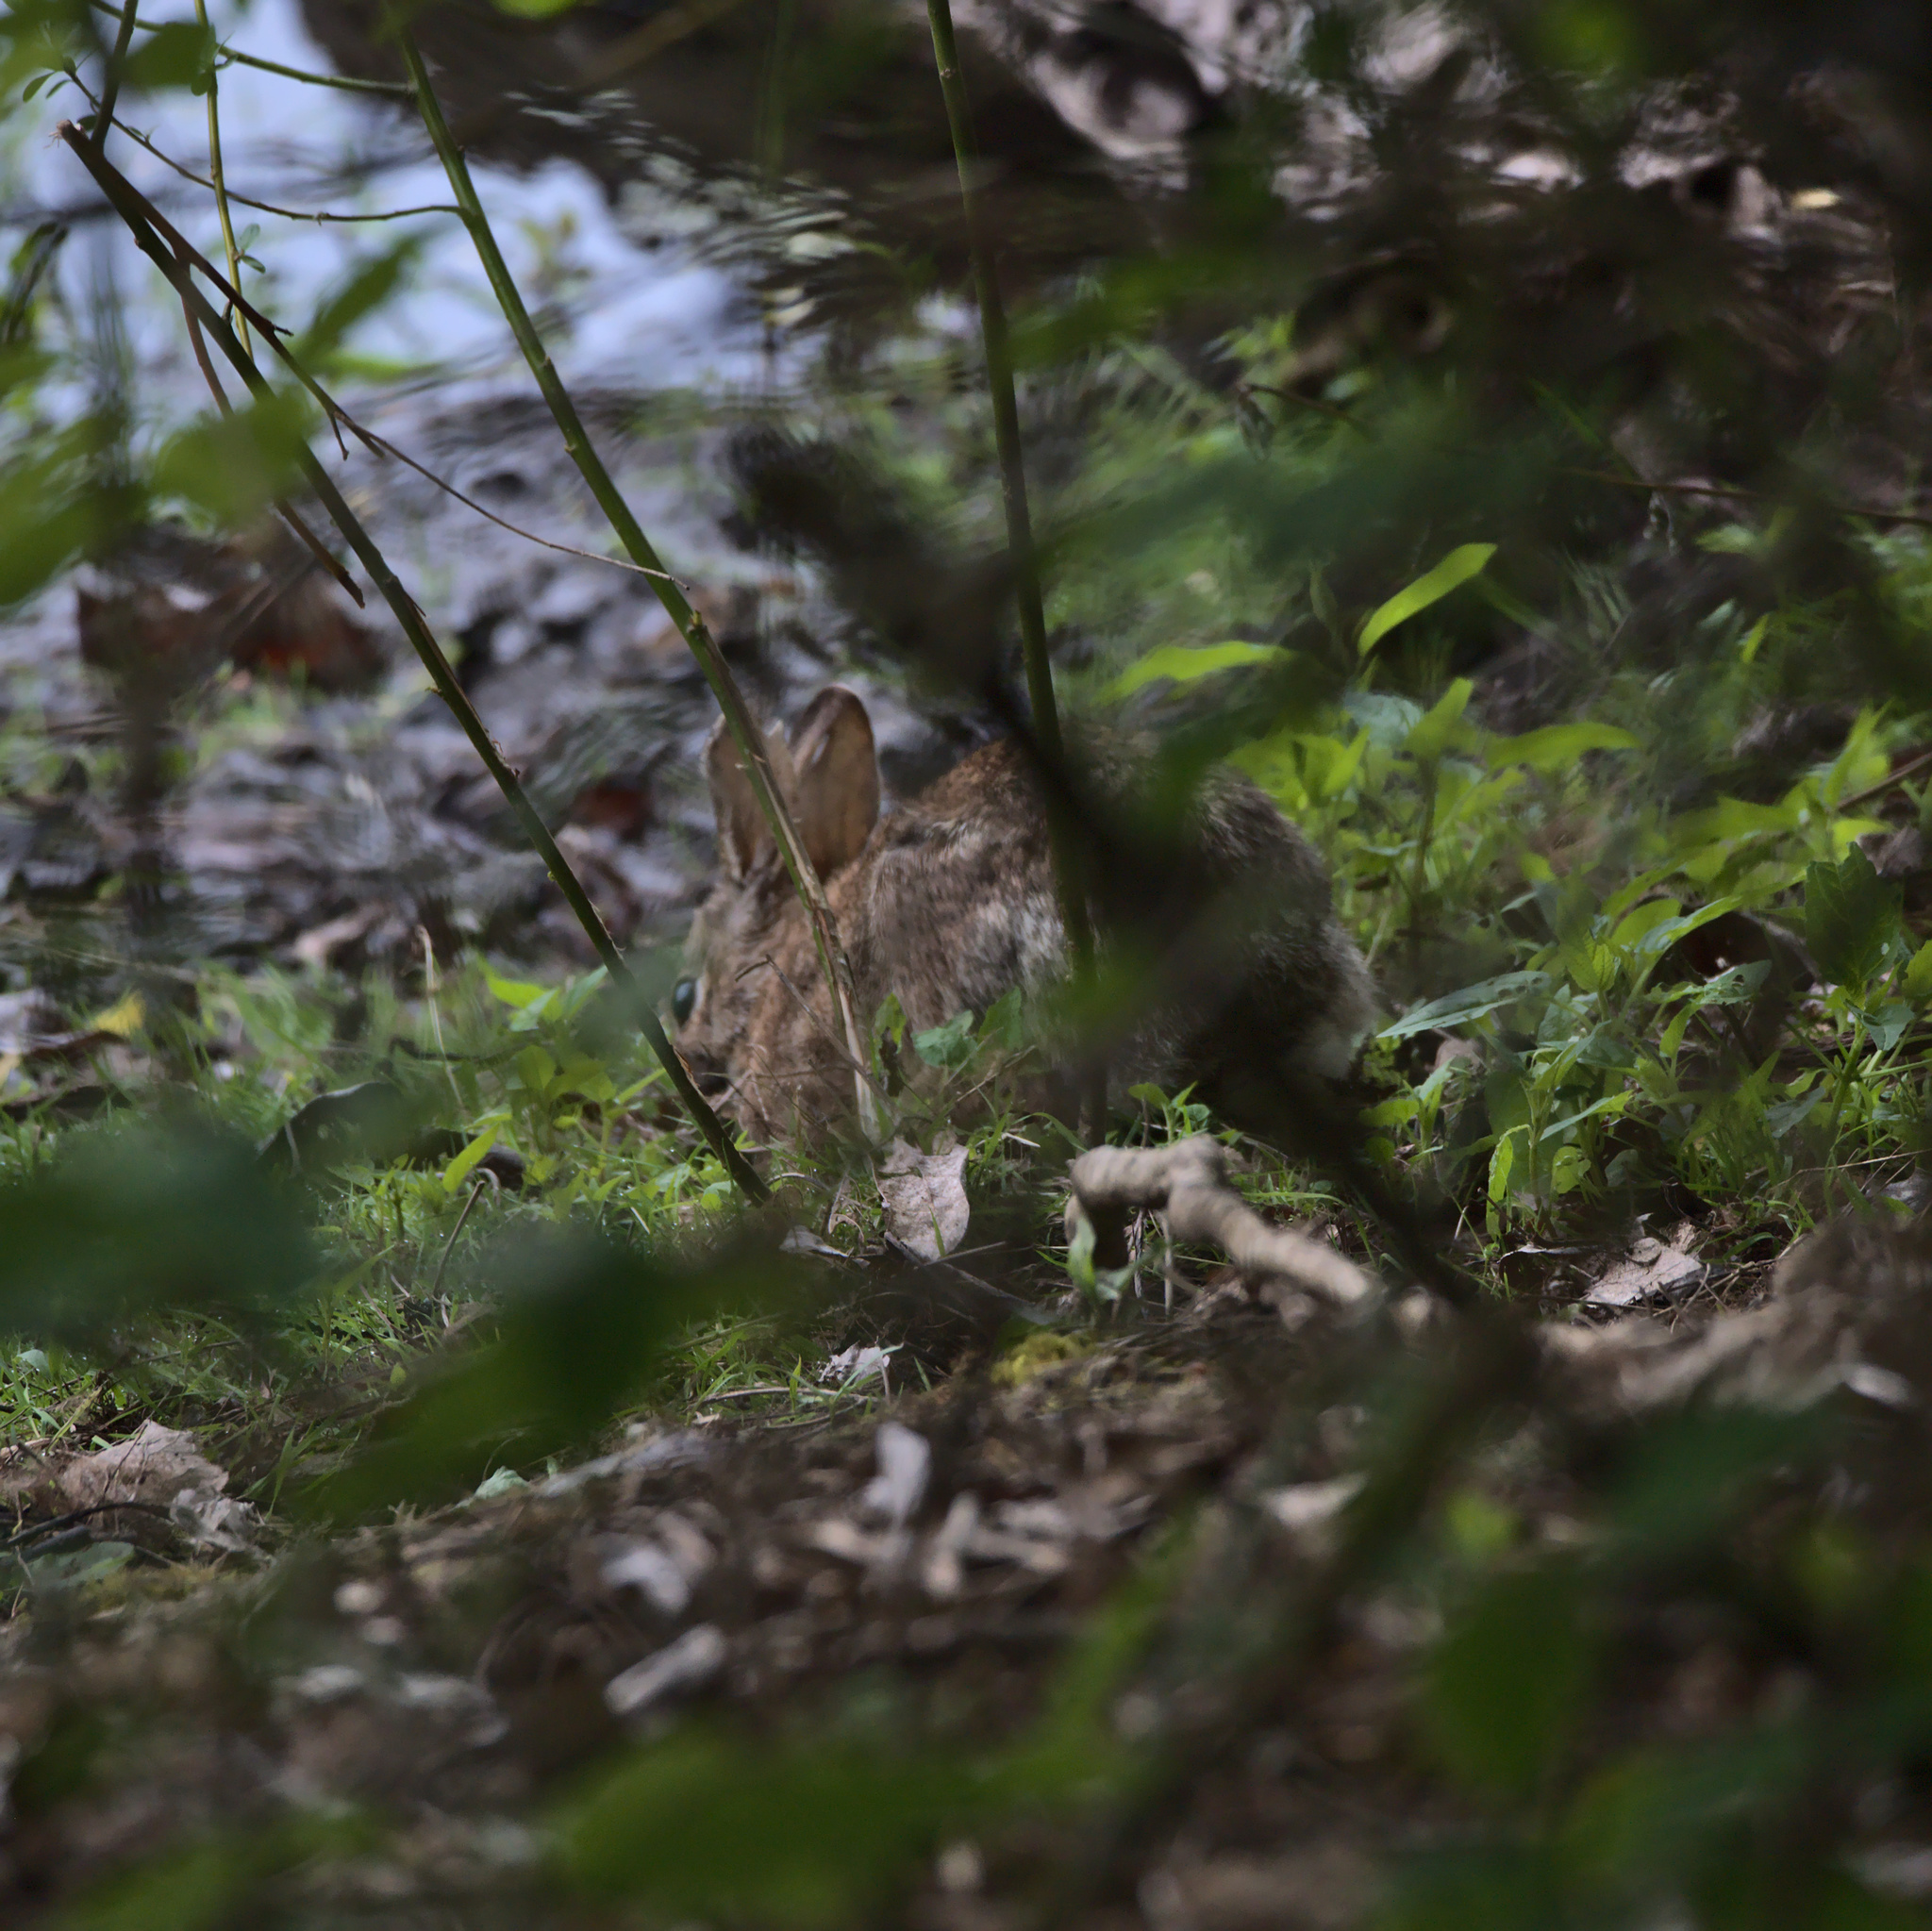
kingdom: Animalia
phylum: Chordata
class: Mammalia
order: Lagomorpha
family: Leporidae
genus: Sylvilagus
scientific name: Sylvilagus
